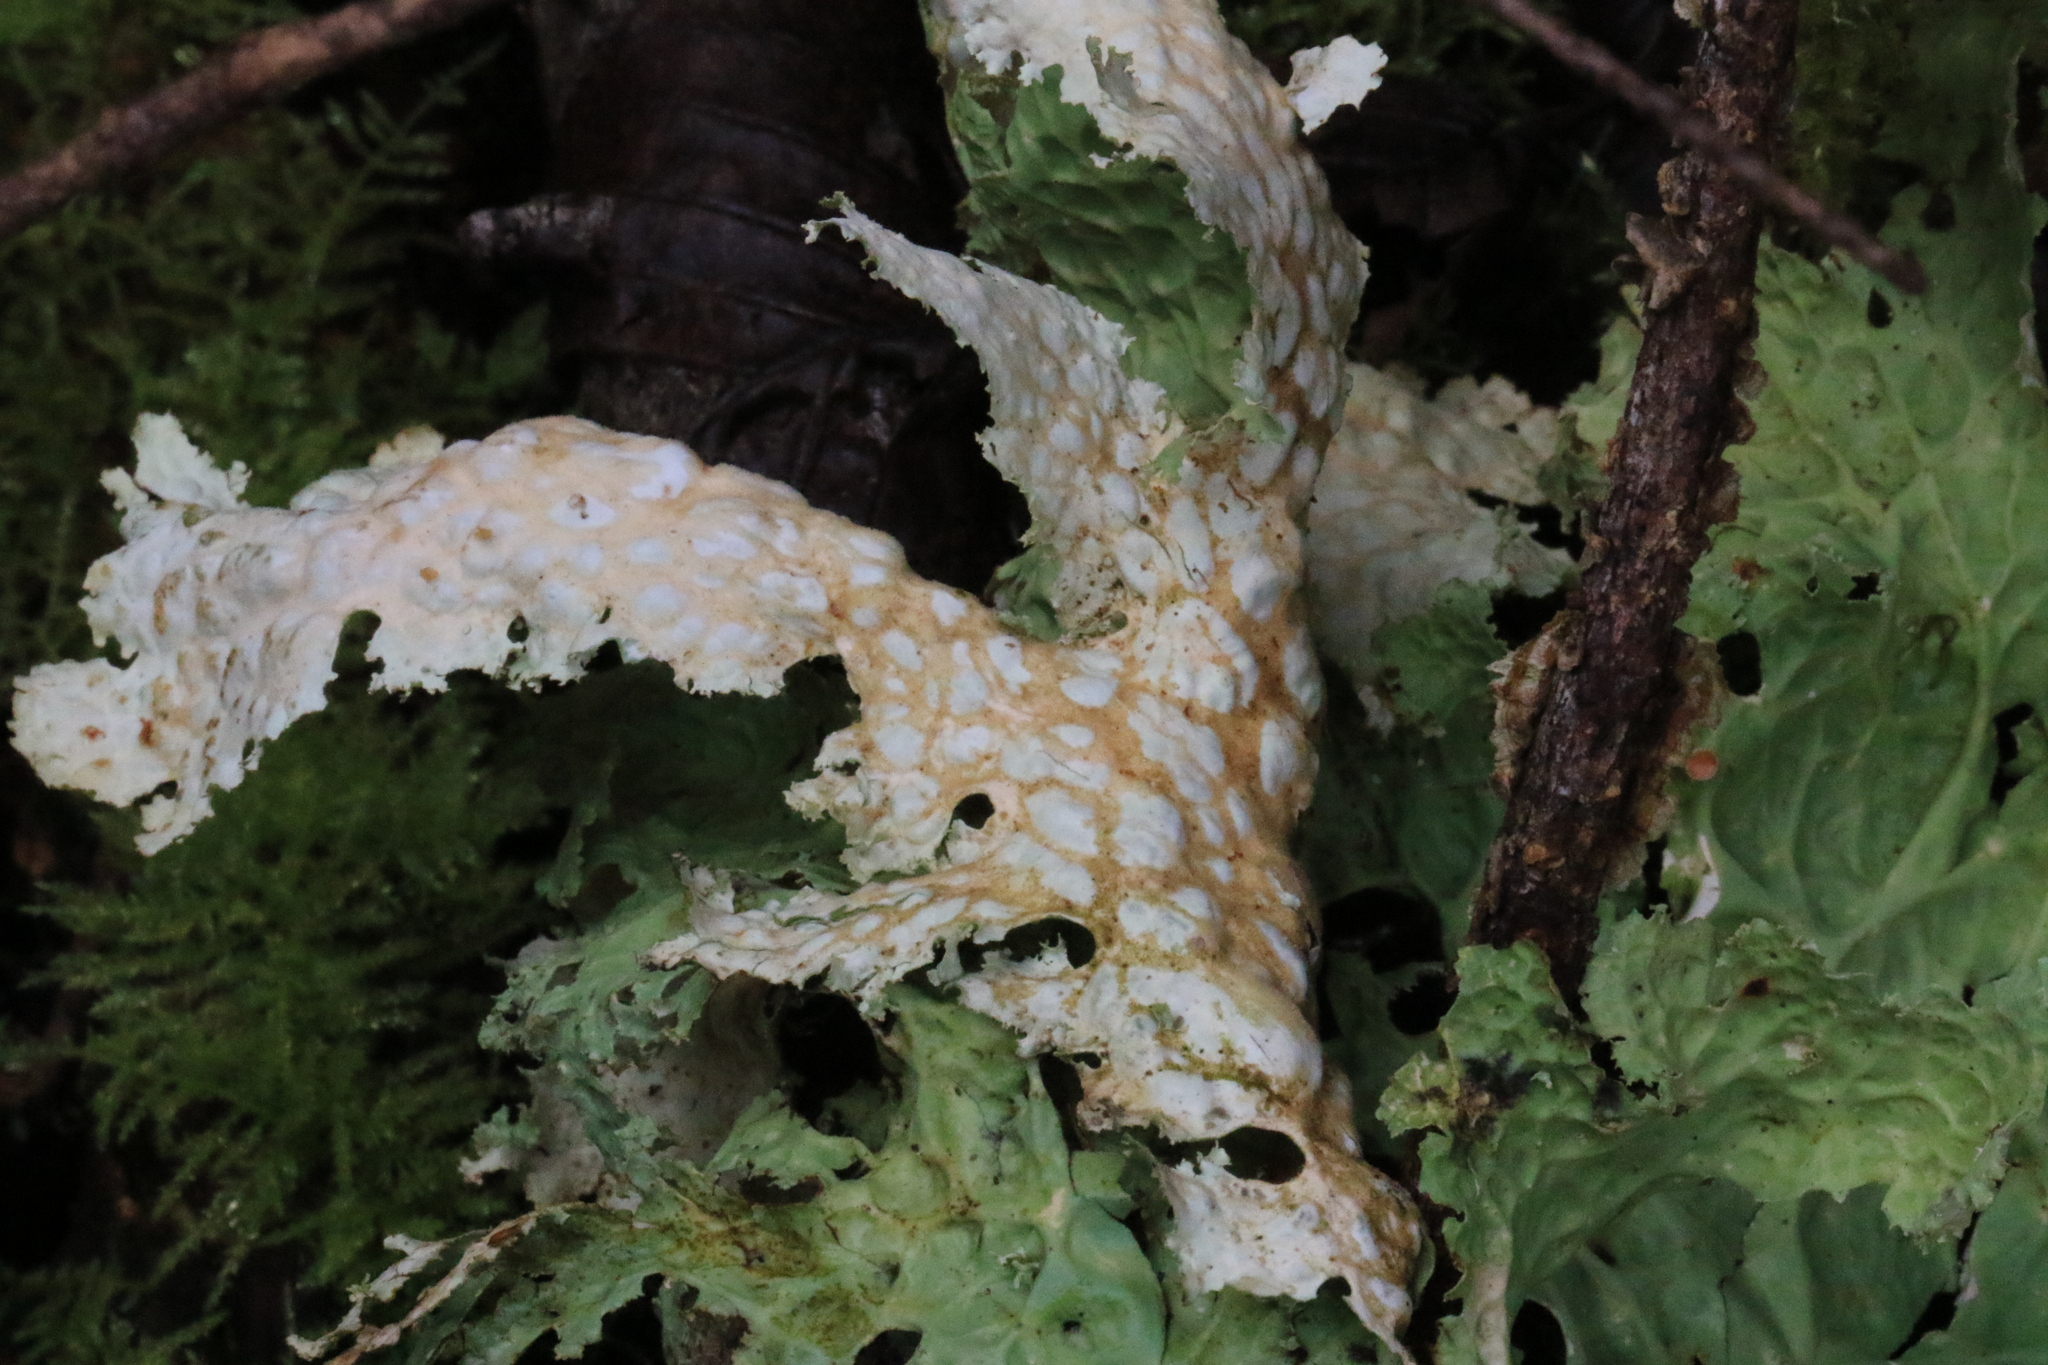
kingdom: Fungi
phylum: Ascomycota
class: Lecanoromycetes
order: Peltigerales
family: Lobariaceae
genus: Lobaria
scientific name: Lobaria oregana
